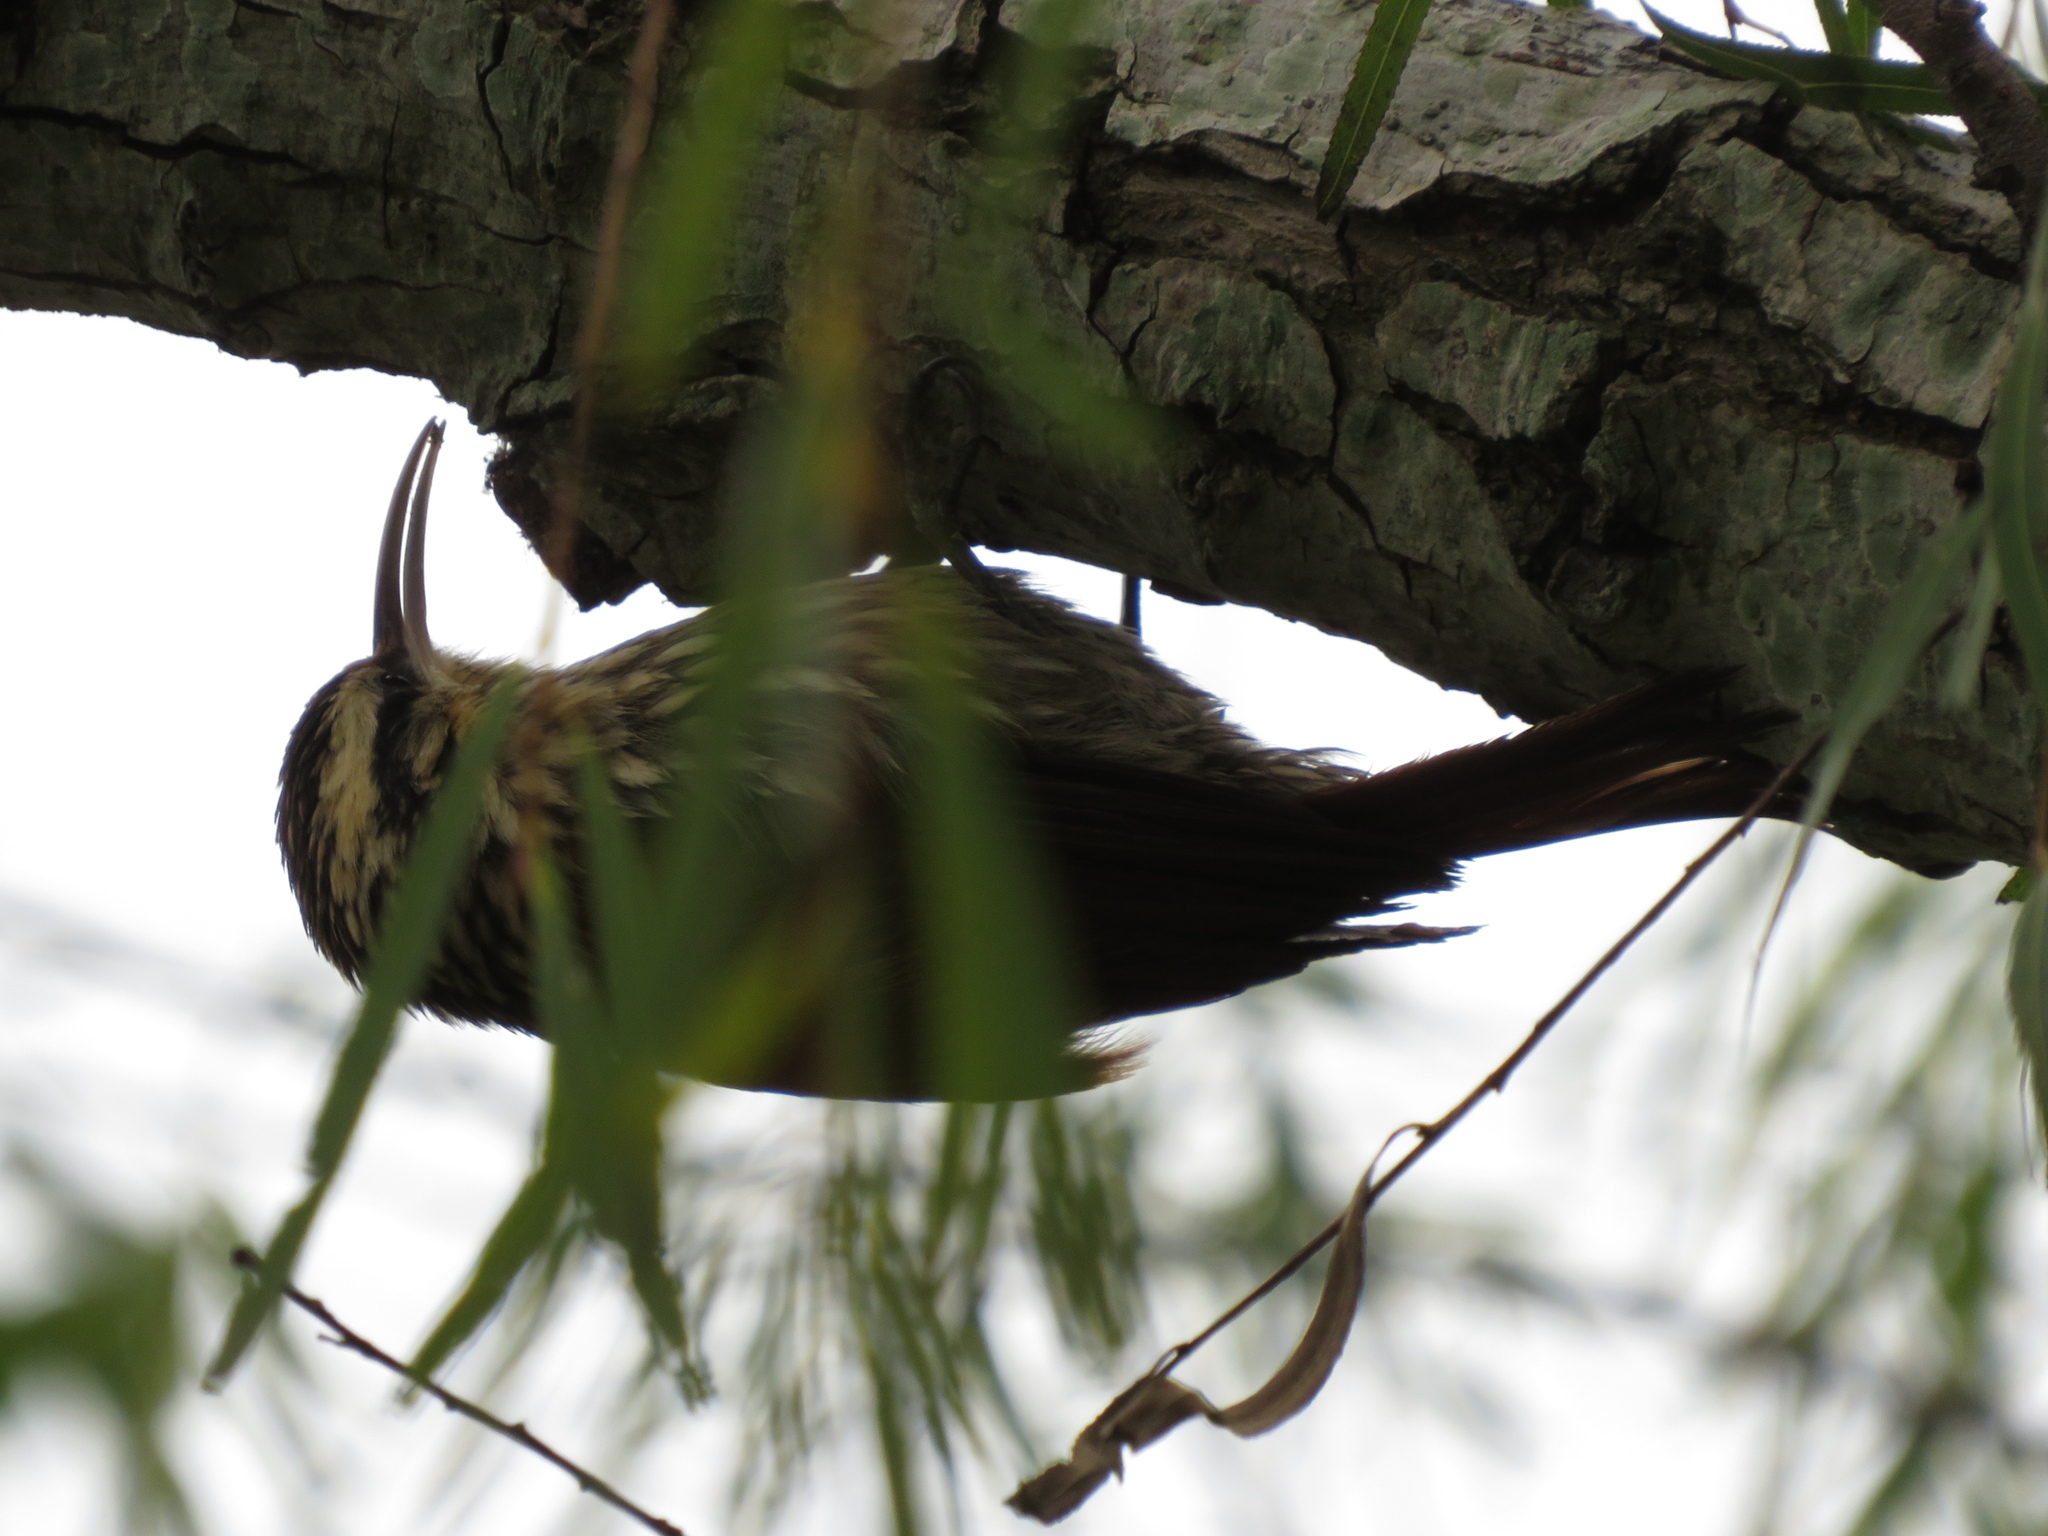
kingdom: Animalia
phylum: Chordata
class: Aves
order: Passeriformes
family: Furnariidae
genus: Lepidocolaptes
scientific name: Lepidocolaptes angustirostris
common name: Narrow-billed woodcreeper
